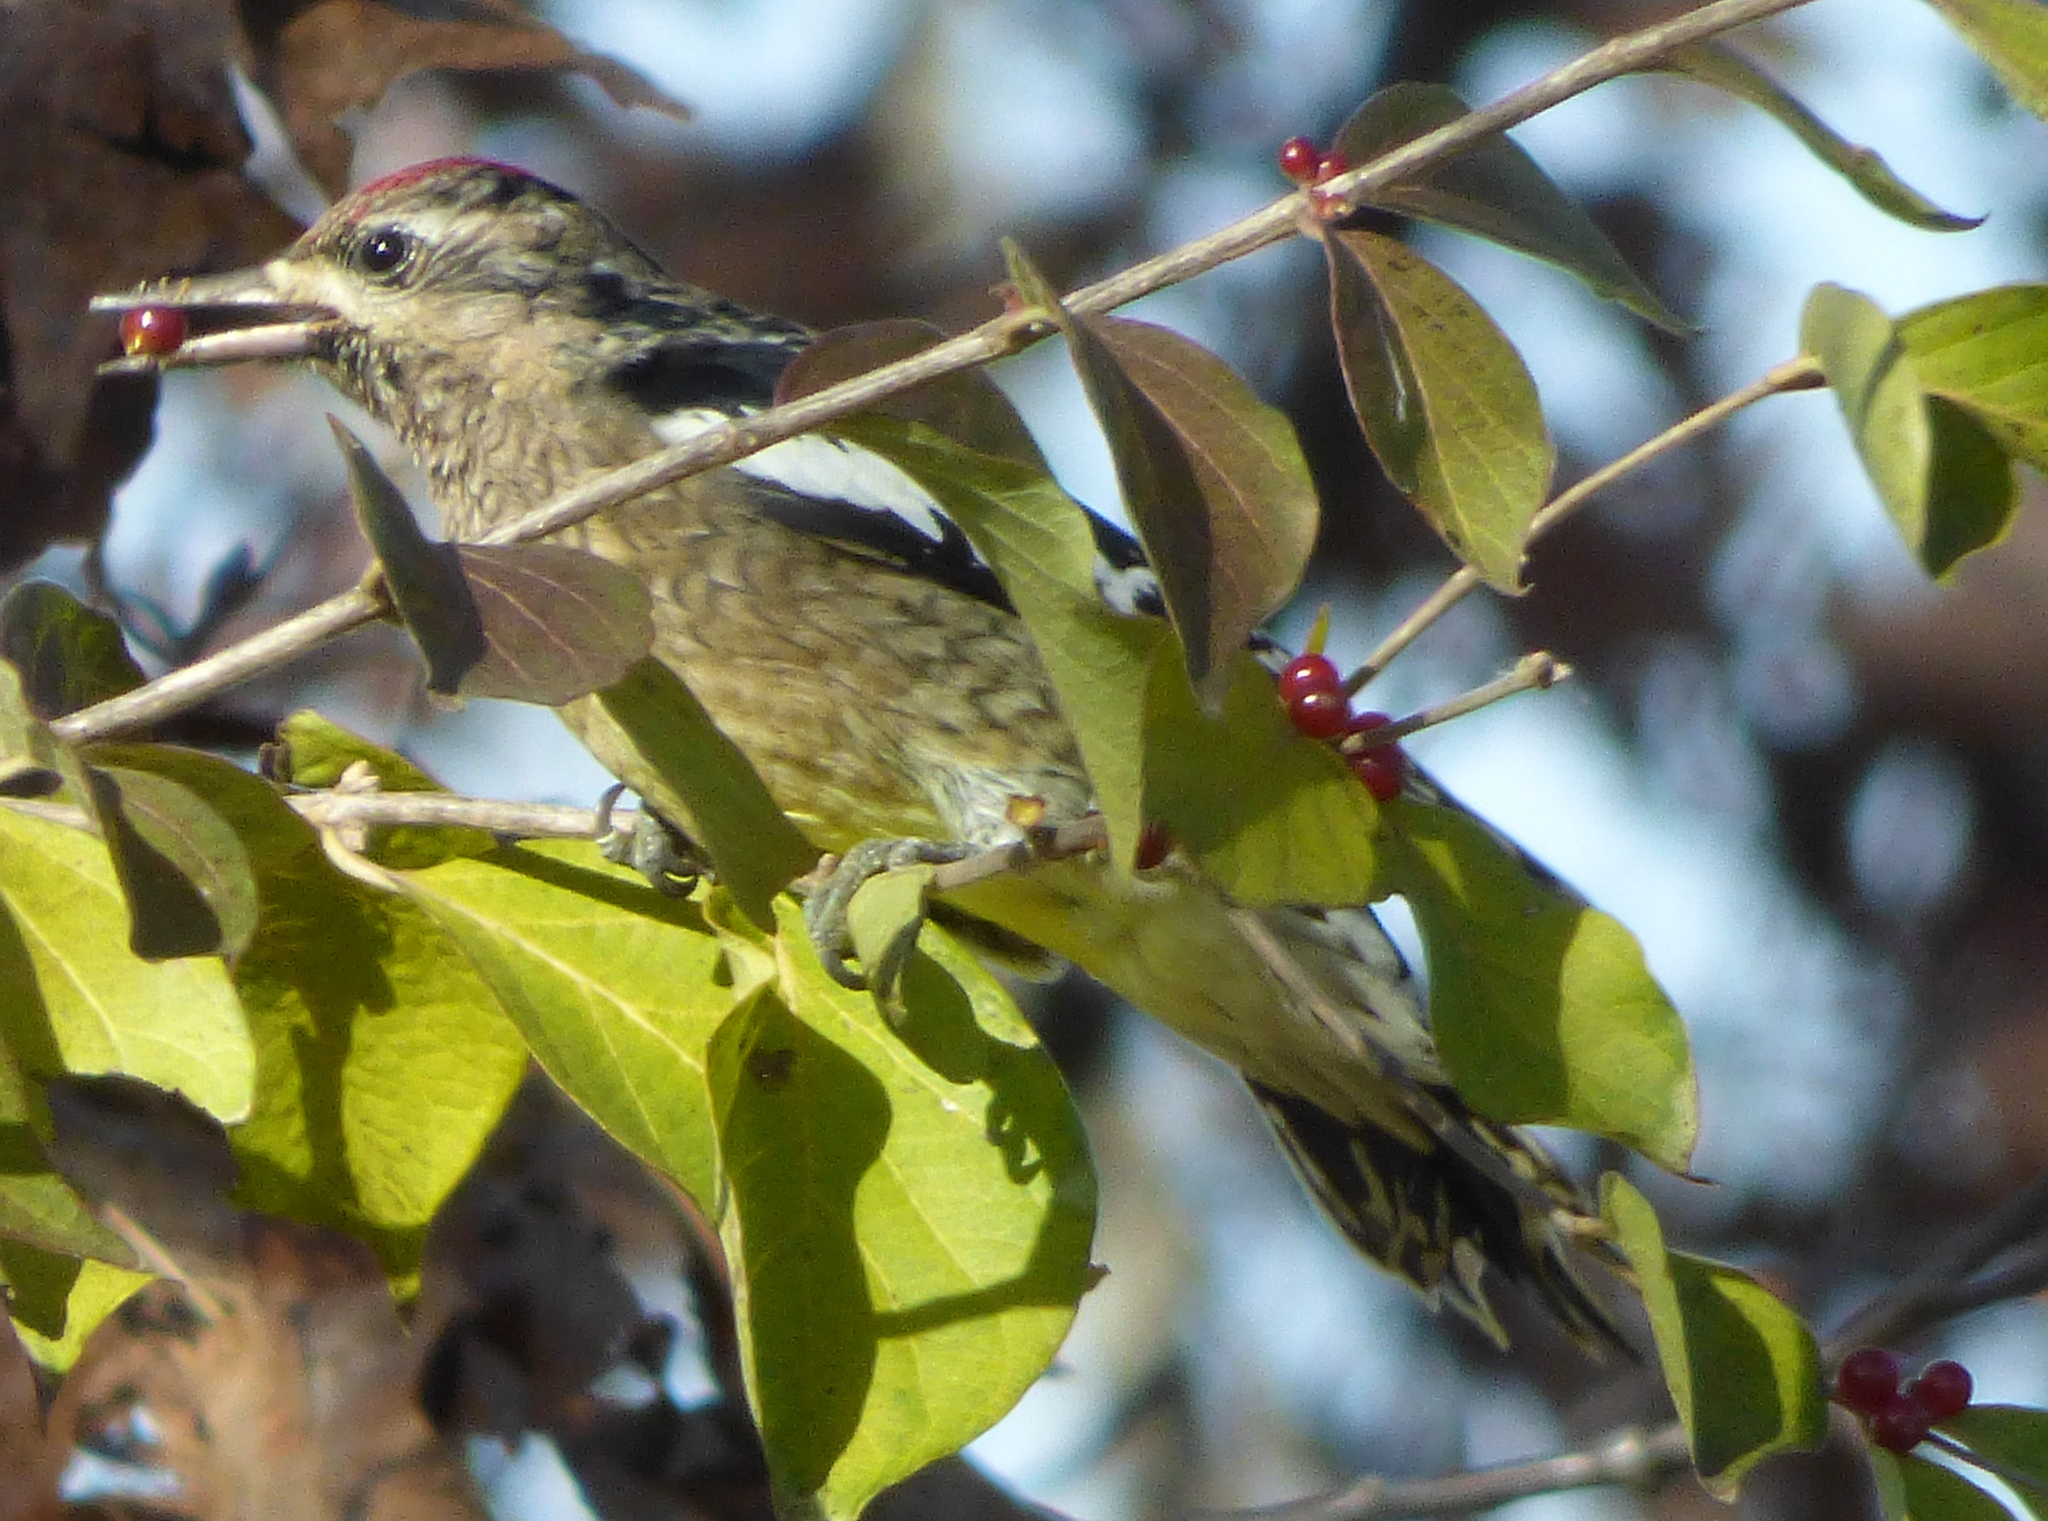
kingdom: Animalia
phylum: Chordata
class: Aves
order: Piciformes
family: Picidae
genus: Sphyrapicus
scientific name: Sphyrapicus varius
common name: Yellow-bellied sapsucker
